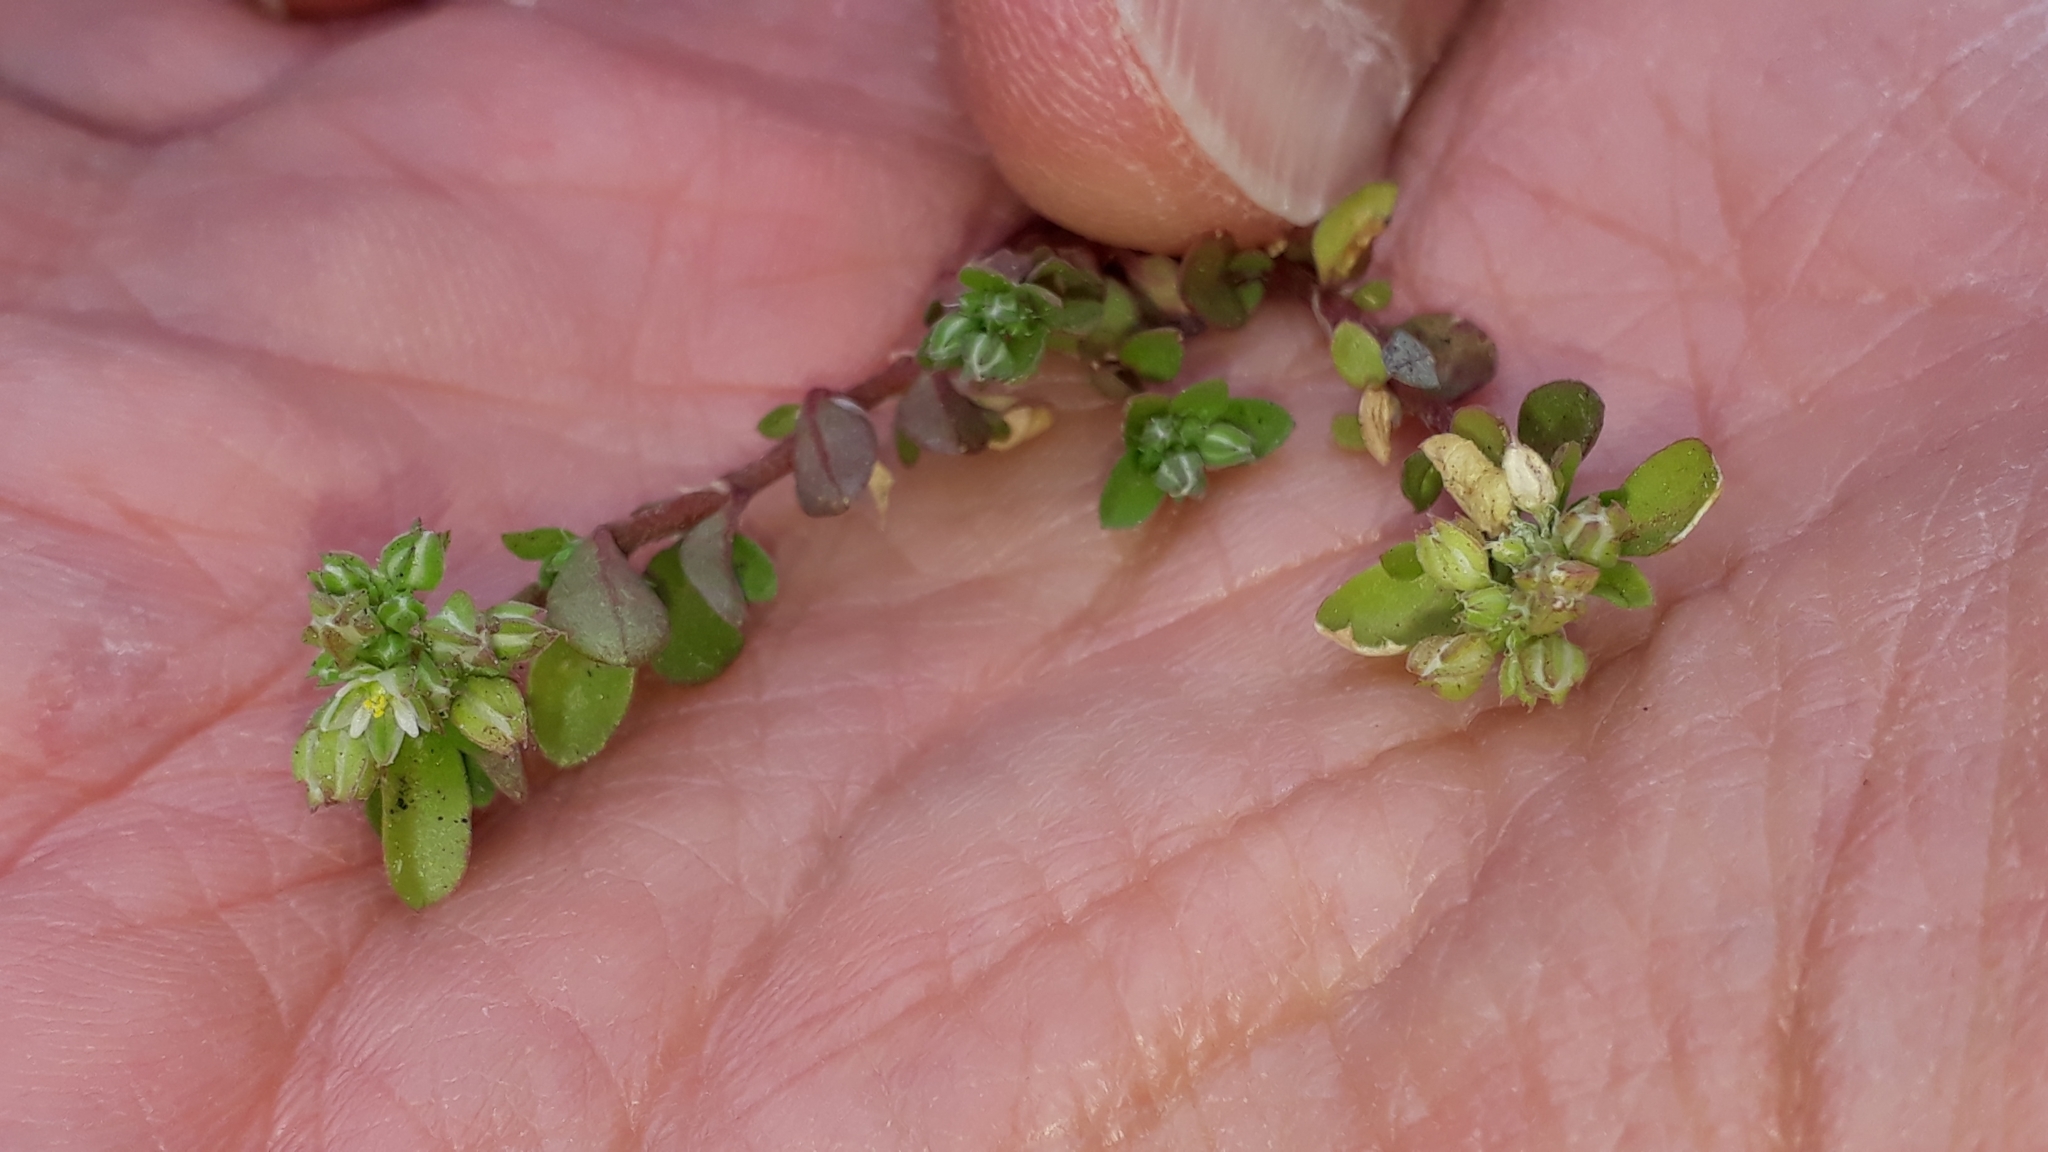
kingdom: Plantae
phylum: Tracheophyta
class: Magnoliopsida
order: Caryophyllales
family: Caryophyllaceae
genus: Polycarpon
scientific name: Polycarpon tetraphyllum
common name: Four-leaved all-seed
